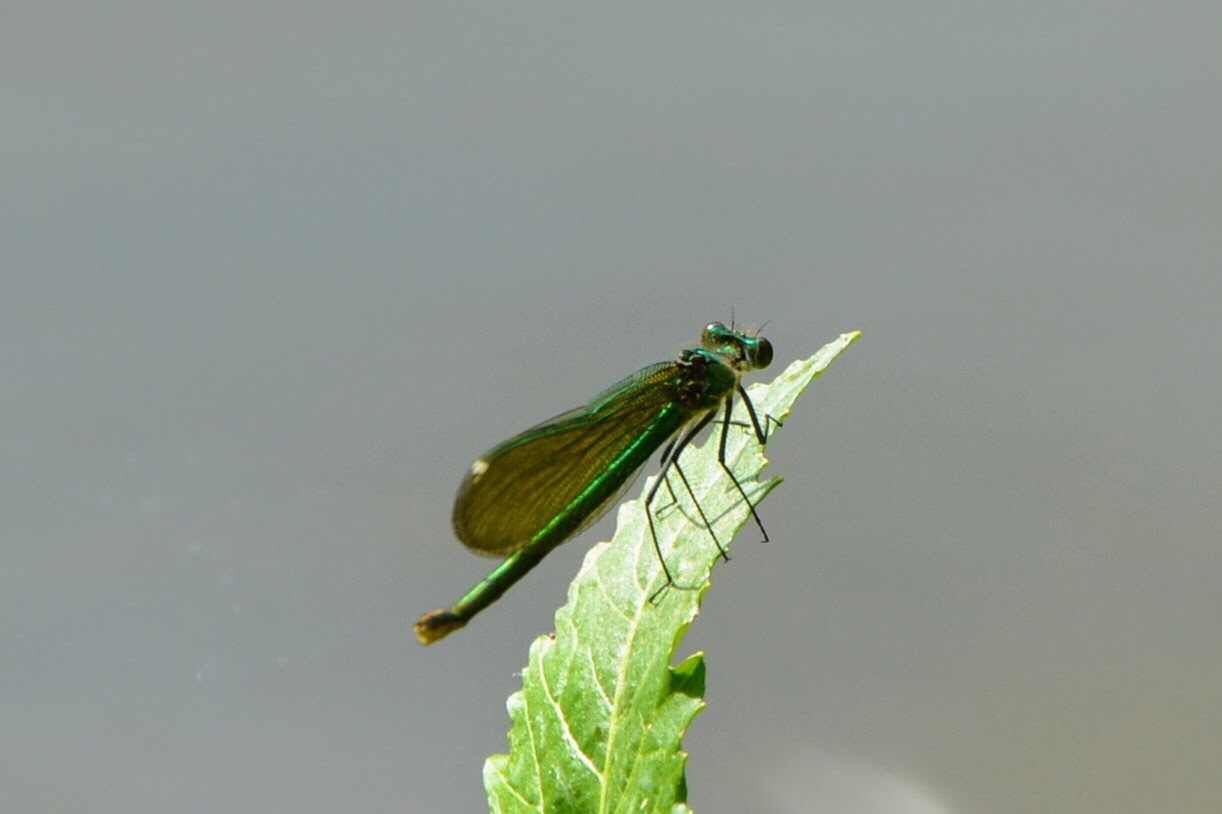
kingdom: Animalia
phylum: Arthropoda
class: Insecta
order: Odonata
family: Calopterygidae
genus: Calopteryx
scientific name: Calopteryx splendens
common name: Banded demoiselle
